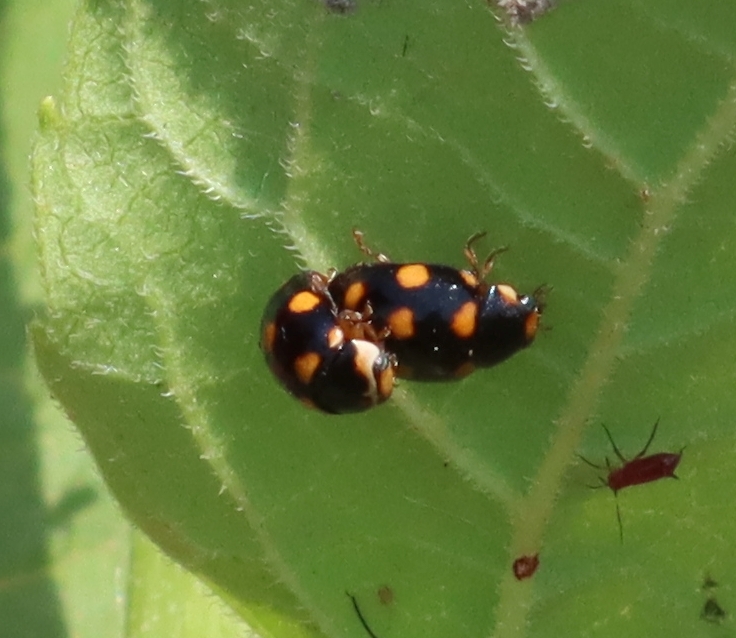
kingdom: Animalia
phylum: Arthropoda
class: Insecta
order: Coleoptera
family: Coccinellidae
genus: Brachiacantha
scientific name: Brachiacantha ursina
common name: Ursine spurleg lady beetle
